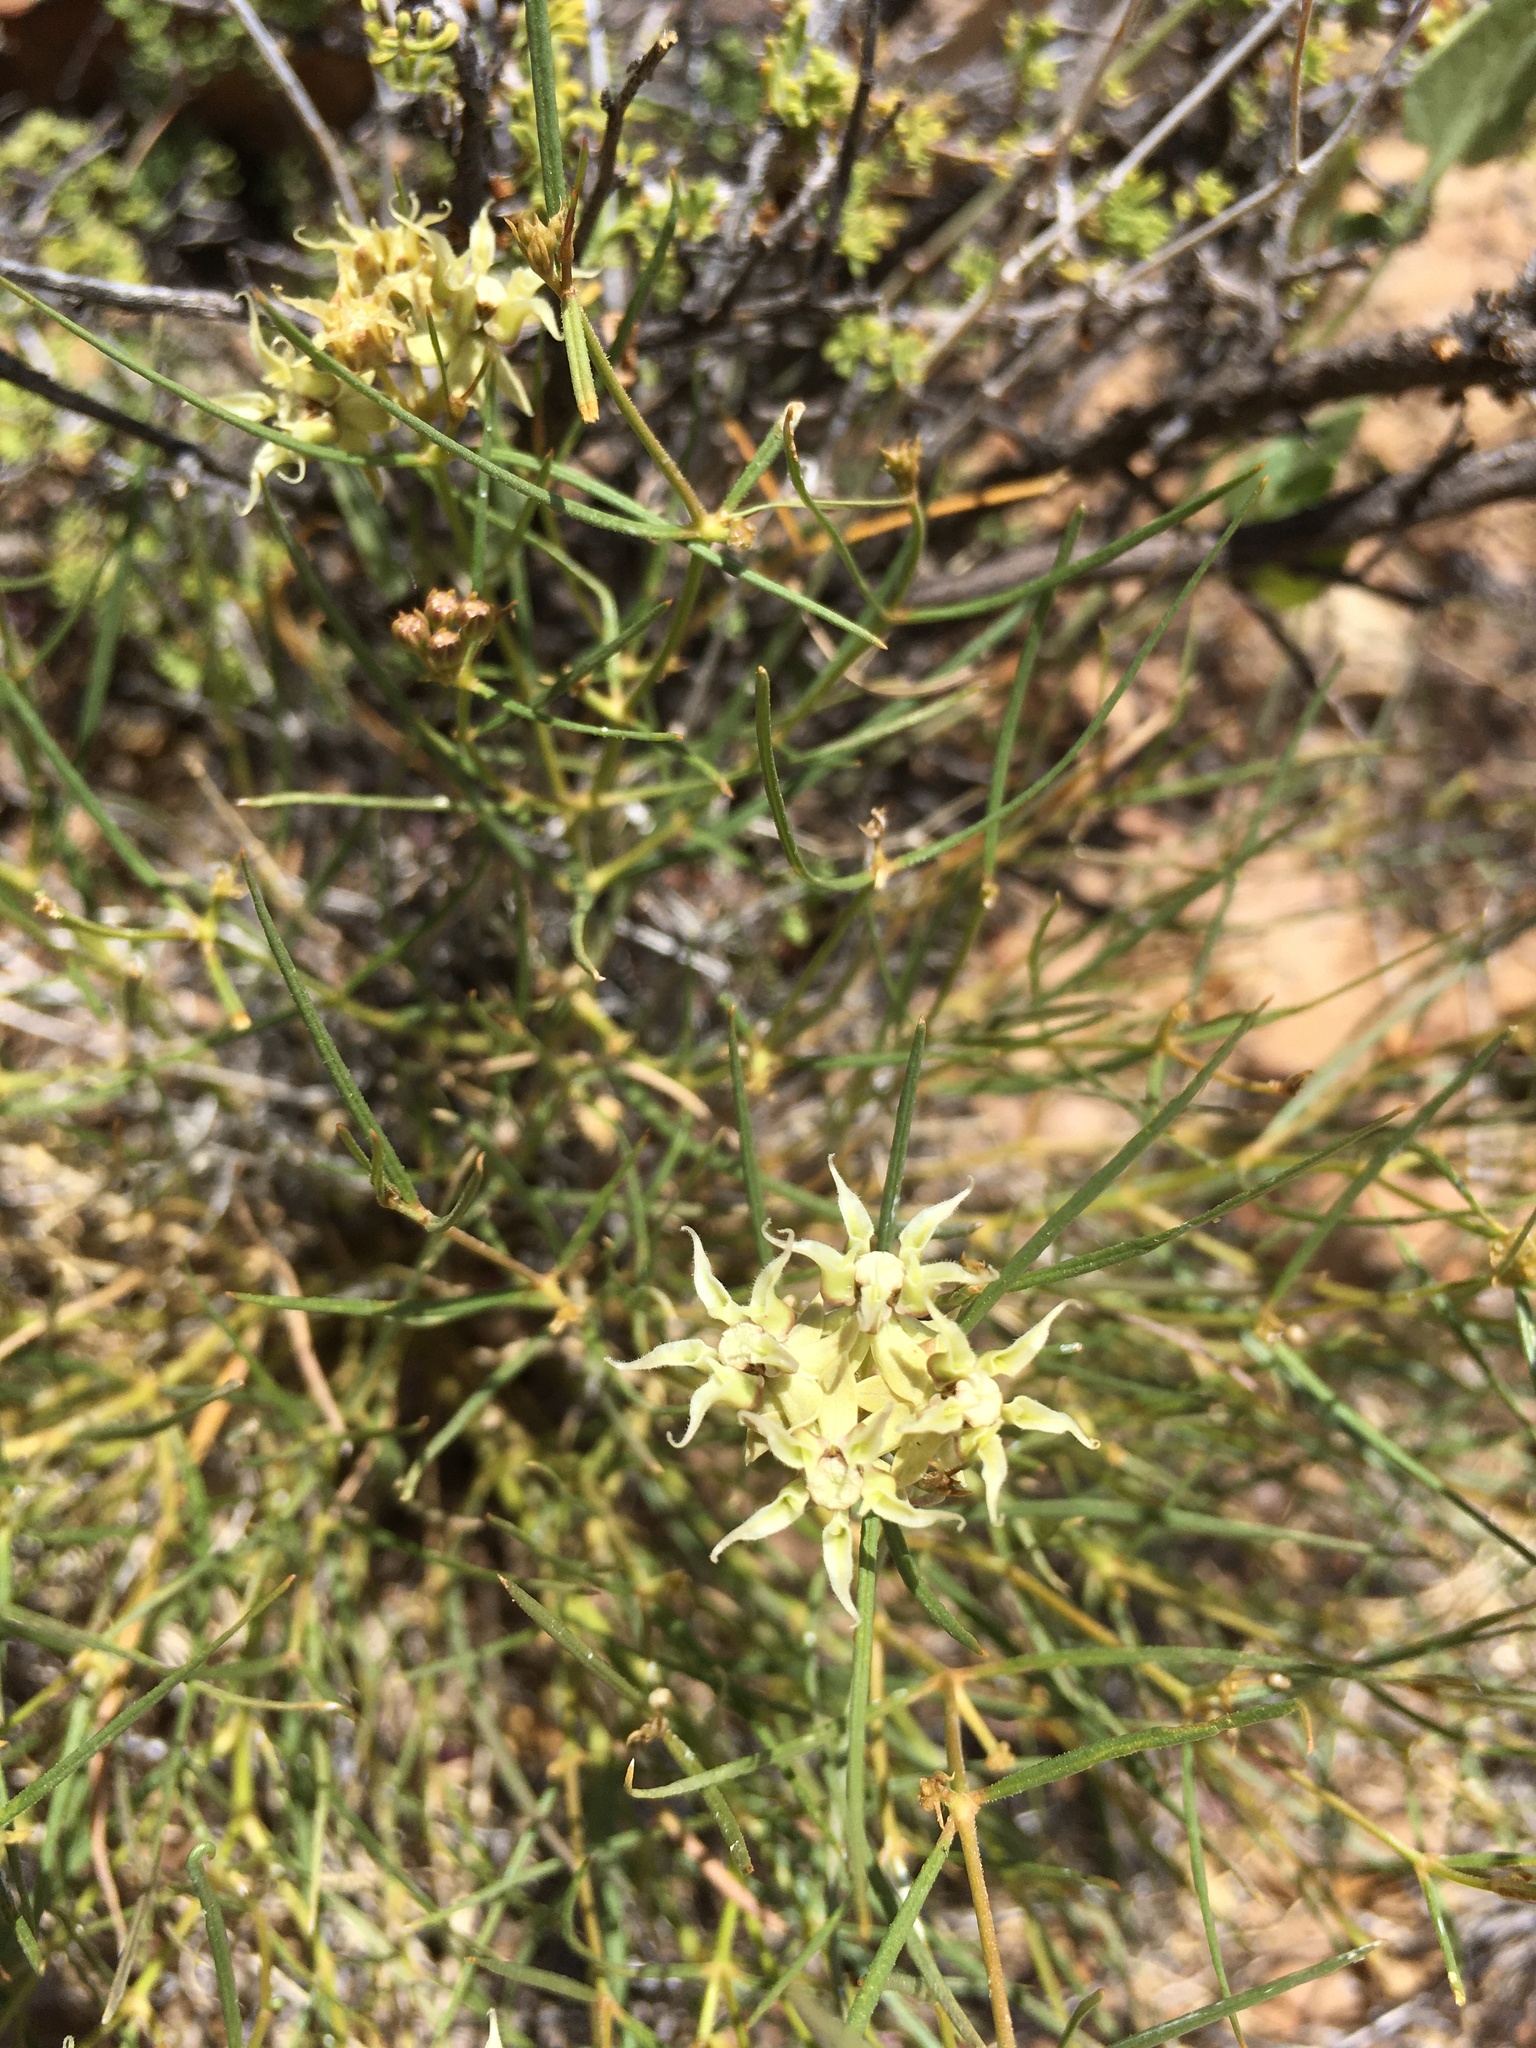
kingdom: Plantae
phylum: Tracheophyta
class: Magnoliopsida
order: Gentianales
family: Apocynaceae
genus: Asclepias
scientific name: Asclepias macrotis
